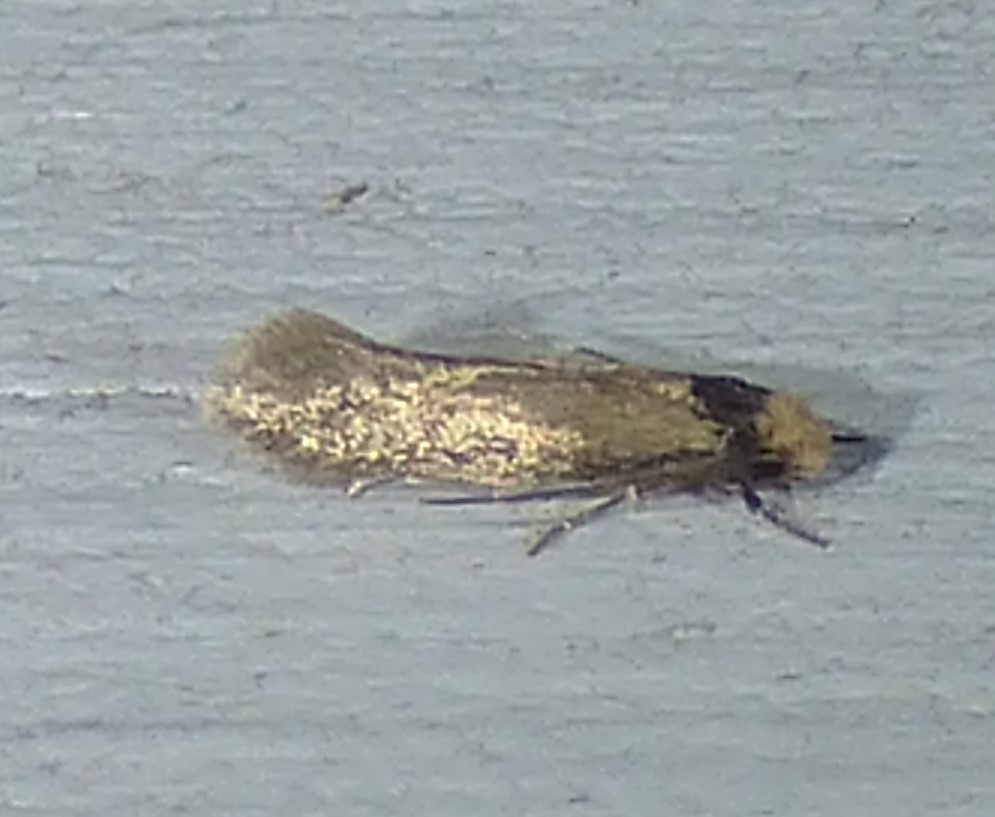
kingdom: Animalia
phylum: Arthropoda
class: Insecta
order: Lepidoptera
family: Meessiidae
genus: Homostinea
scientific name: Homostinea curviliniella
